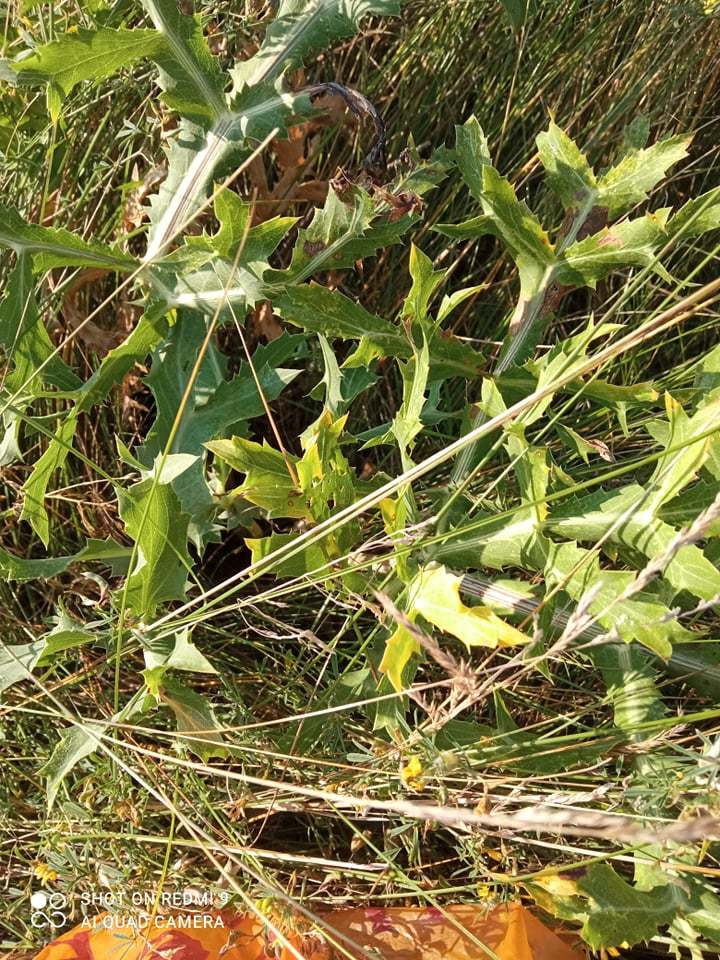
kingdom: Plantae
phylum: Tracheophyta
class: Magnoliopsida
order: Apiales
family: Apiaceae
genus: Eryngium
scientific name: Eryngium campestre
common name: Field eryngo
